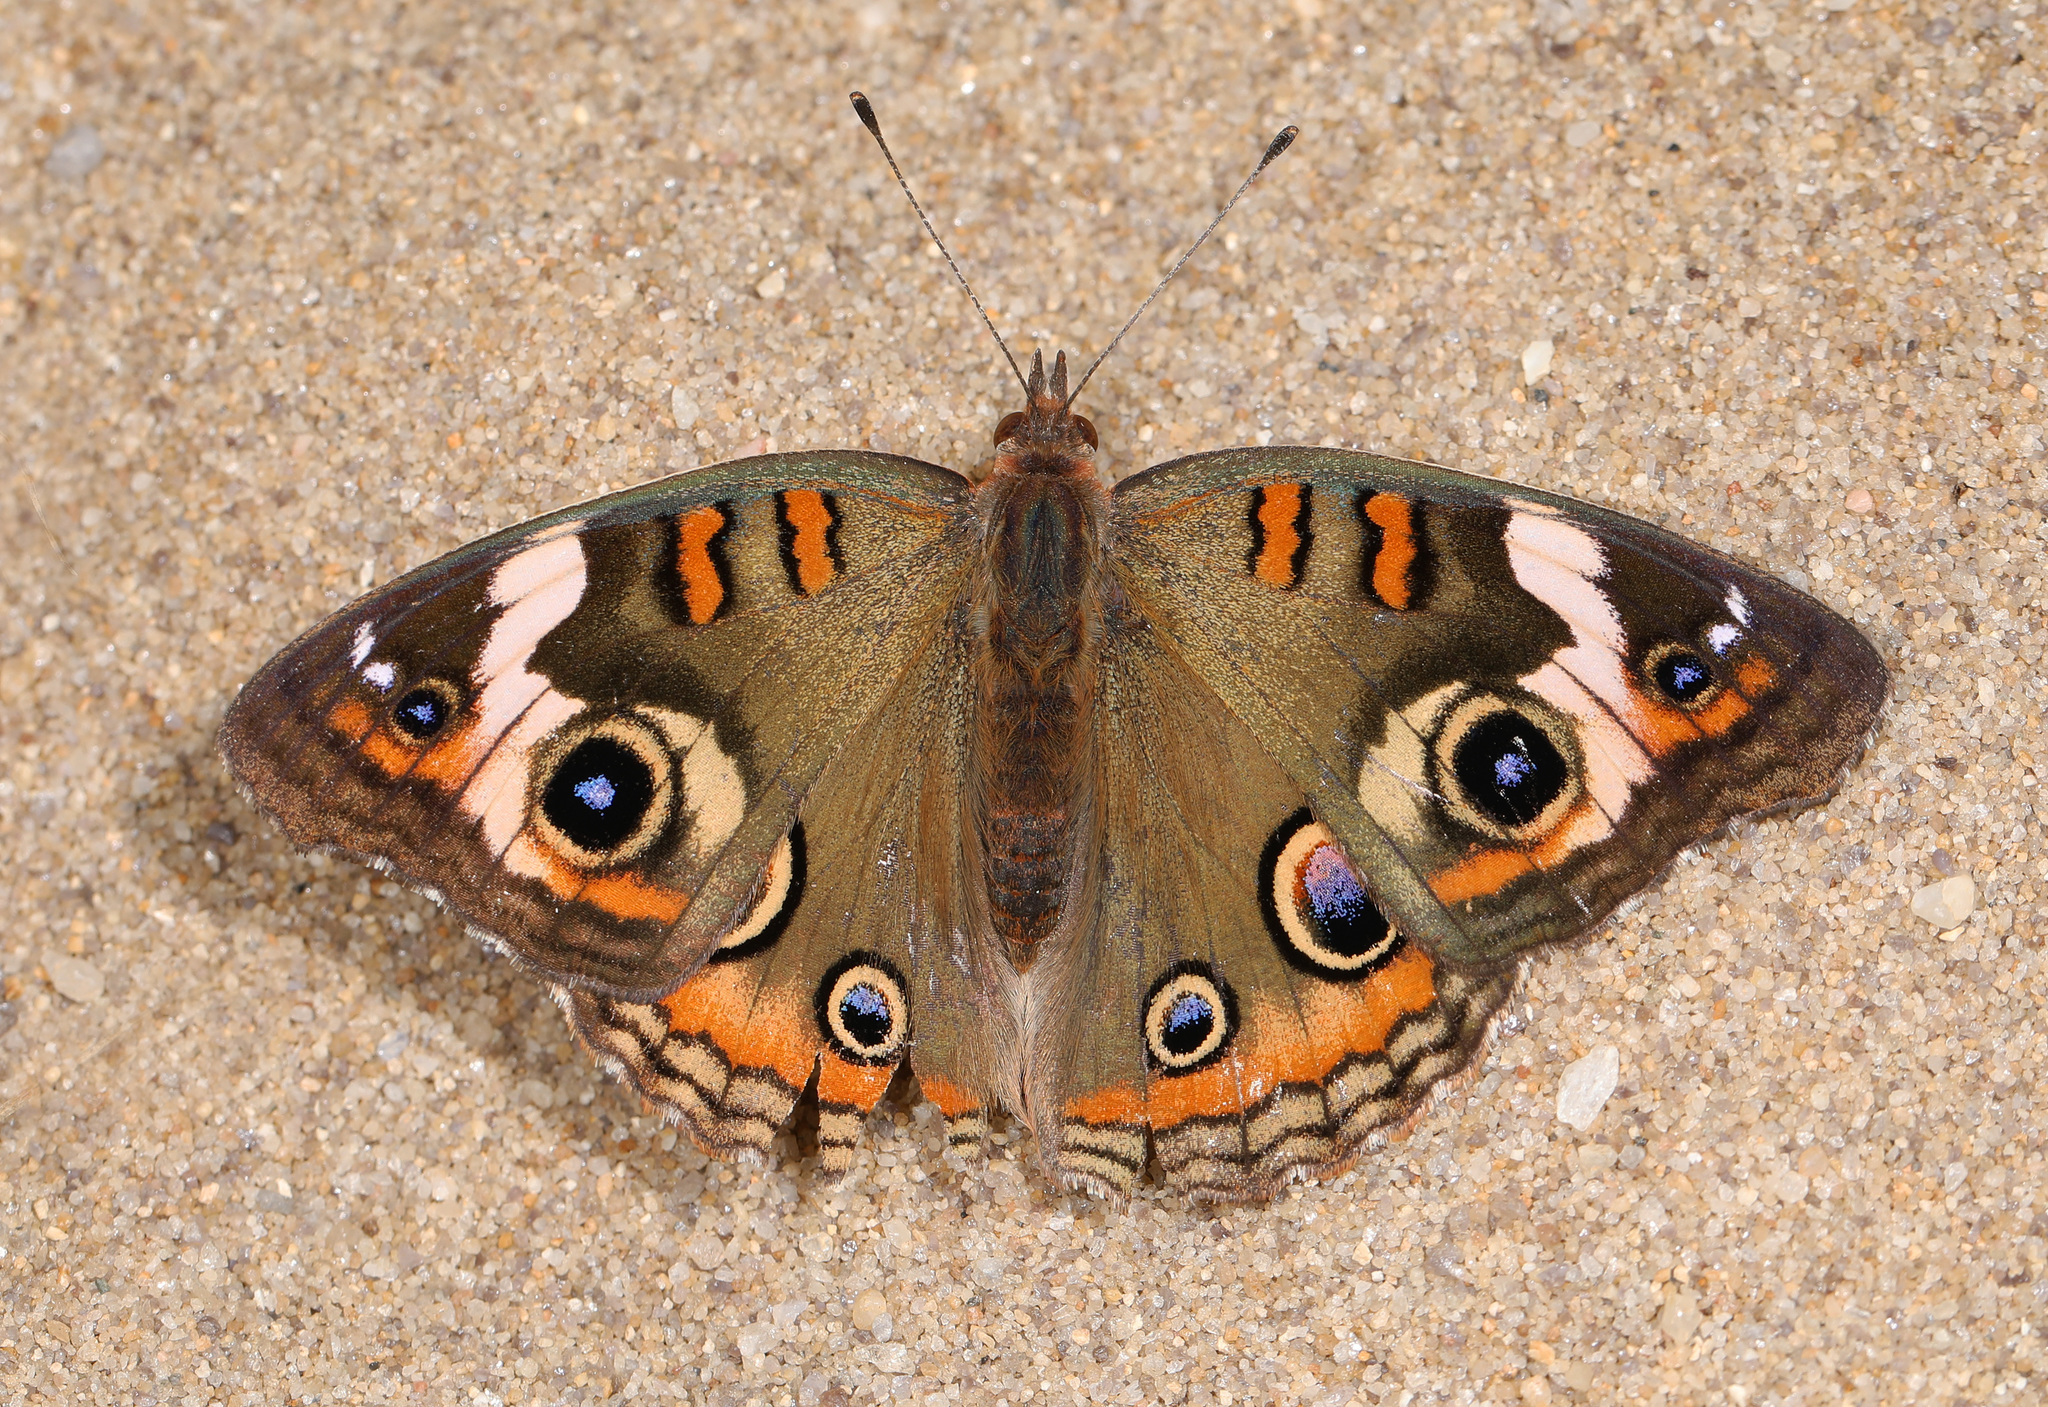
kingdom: Animalia
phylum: Arthropoda
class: Insecta
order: Lepidoptera
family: Nymphalidae
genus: Junonia
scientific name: Junonia coenia
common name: Common buckeye
